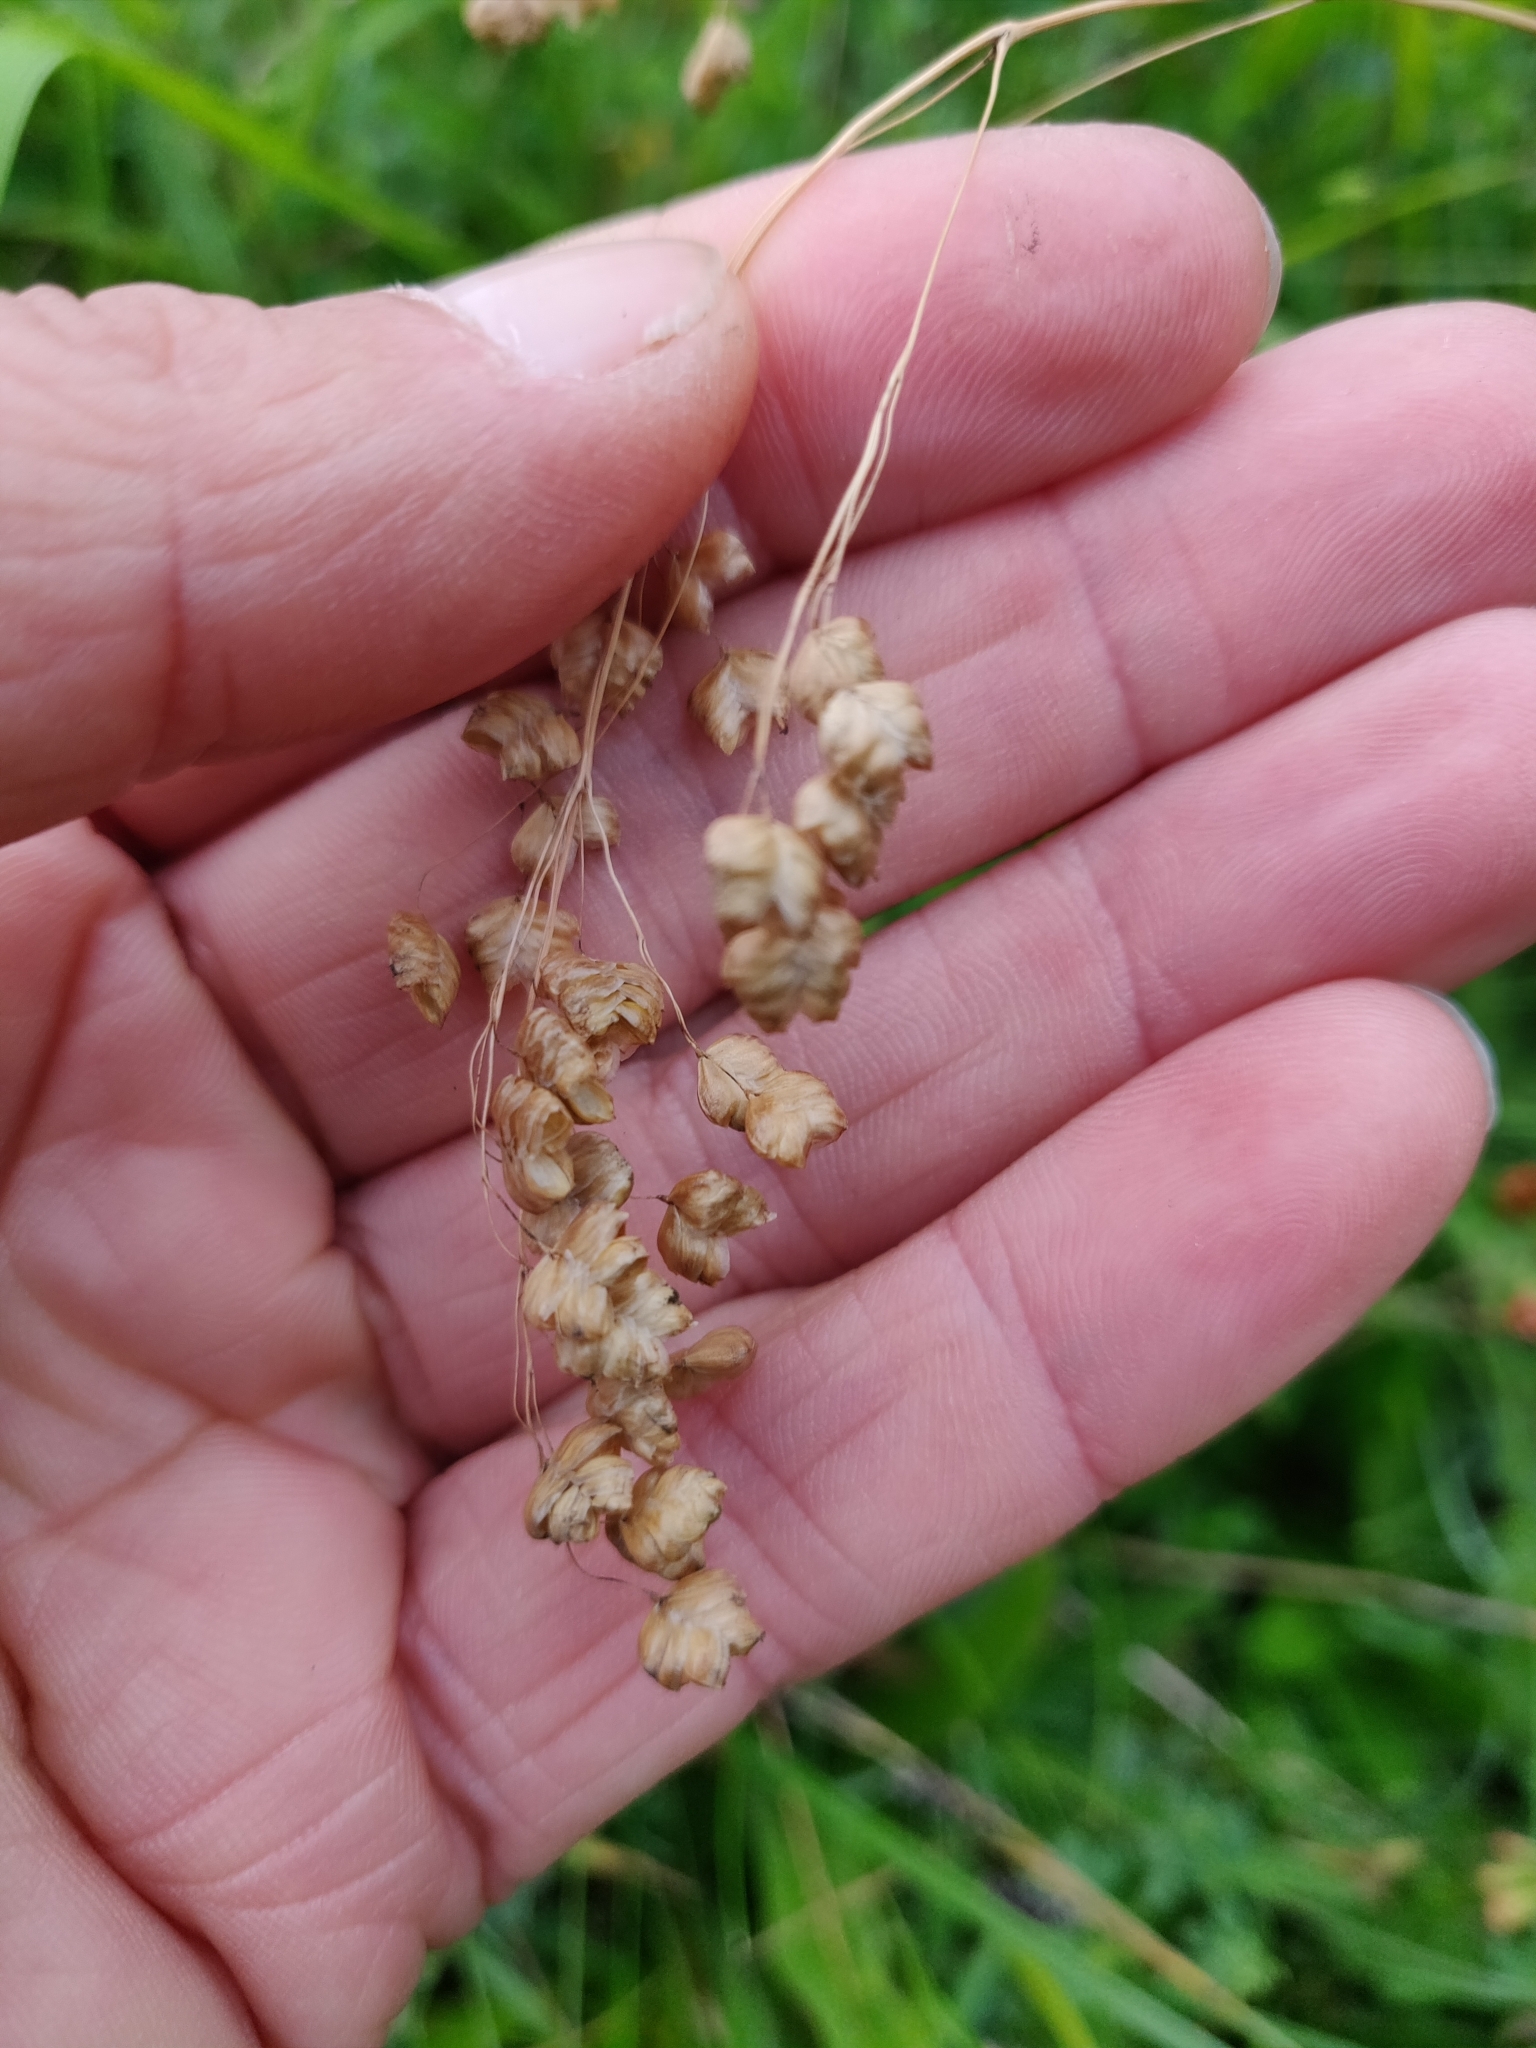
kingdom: Plantae
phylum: Tracheophyta
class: Liliopsida
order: Poales
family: Poaceae
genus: Briza
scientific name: Briza media
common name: Quaking grass
